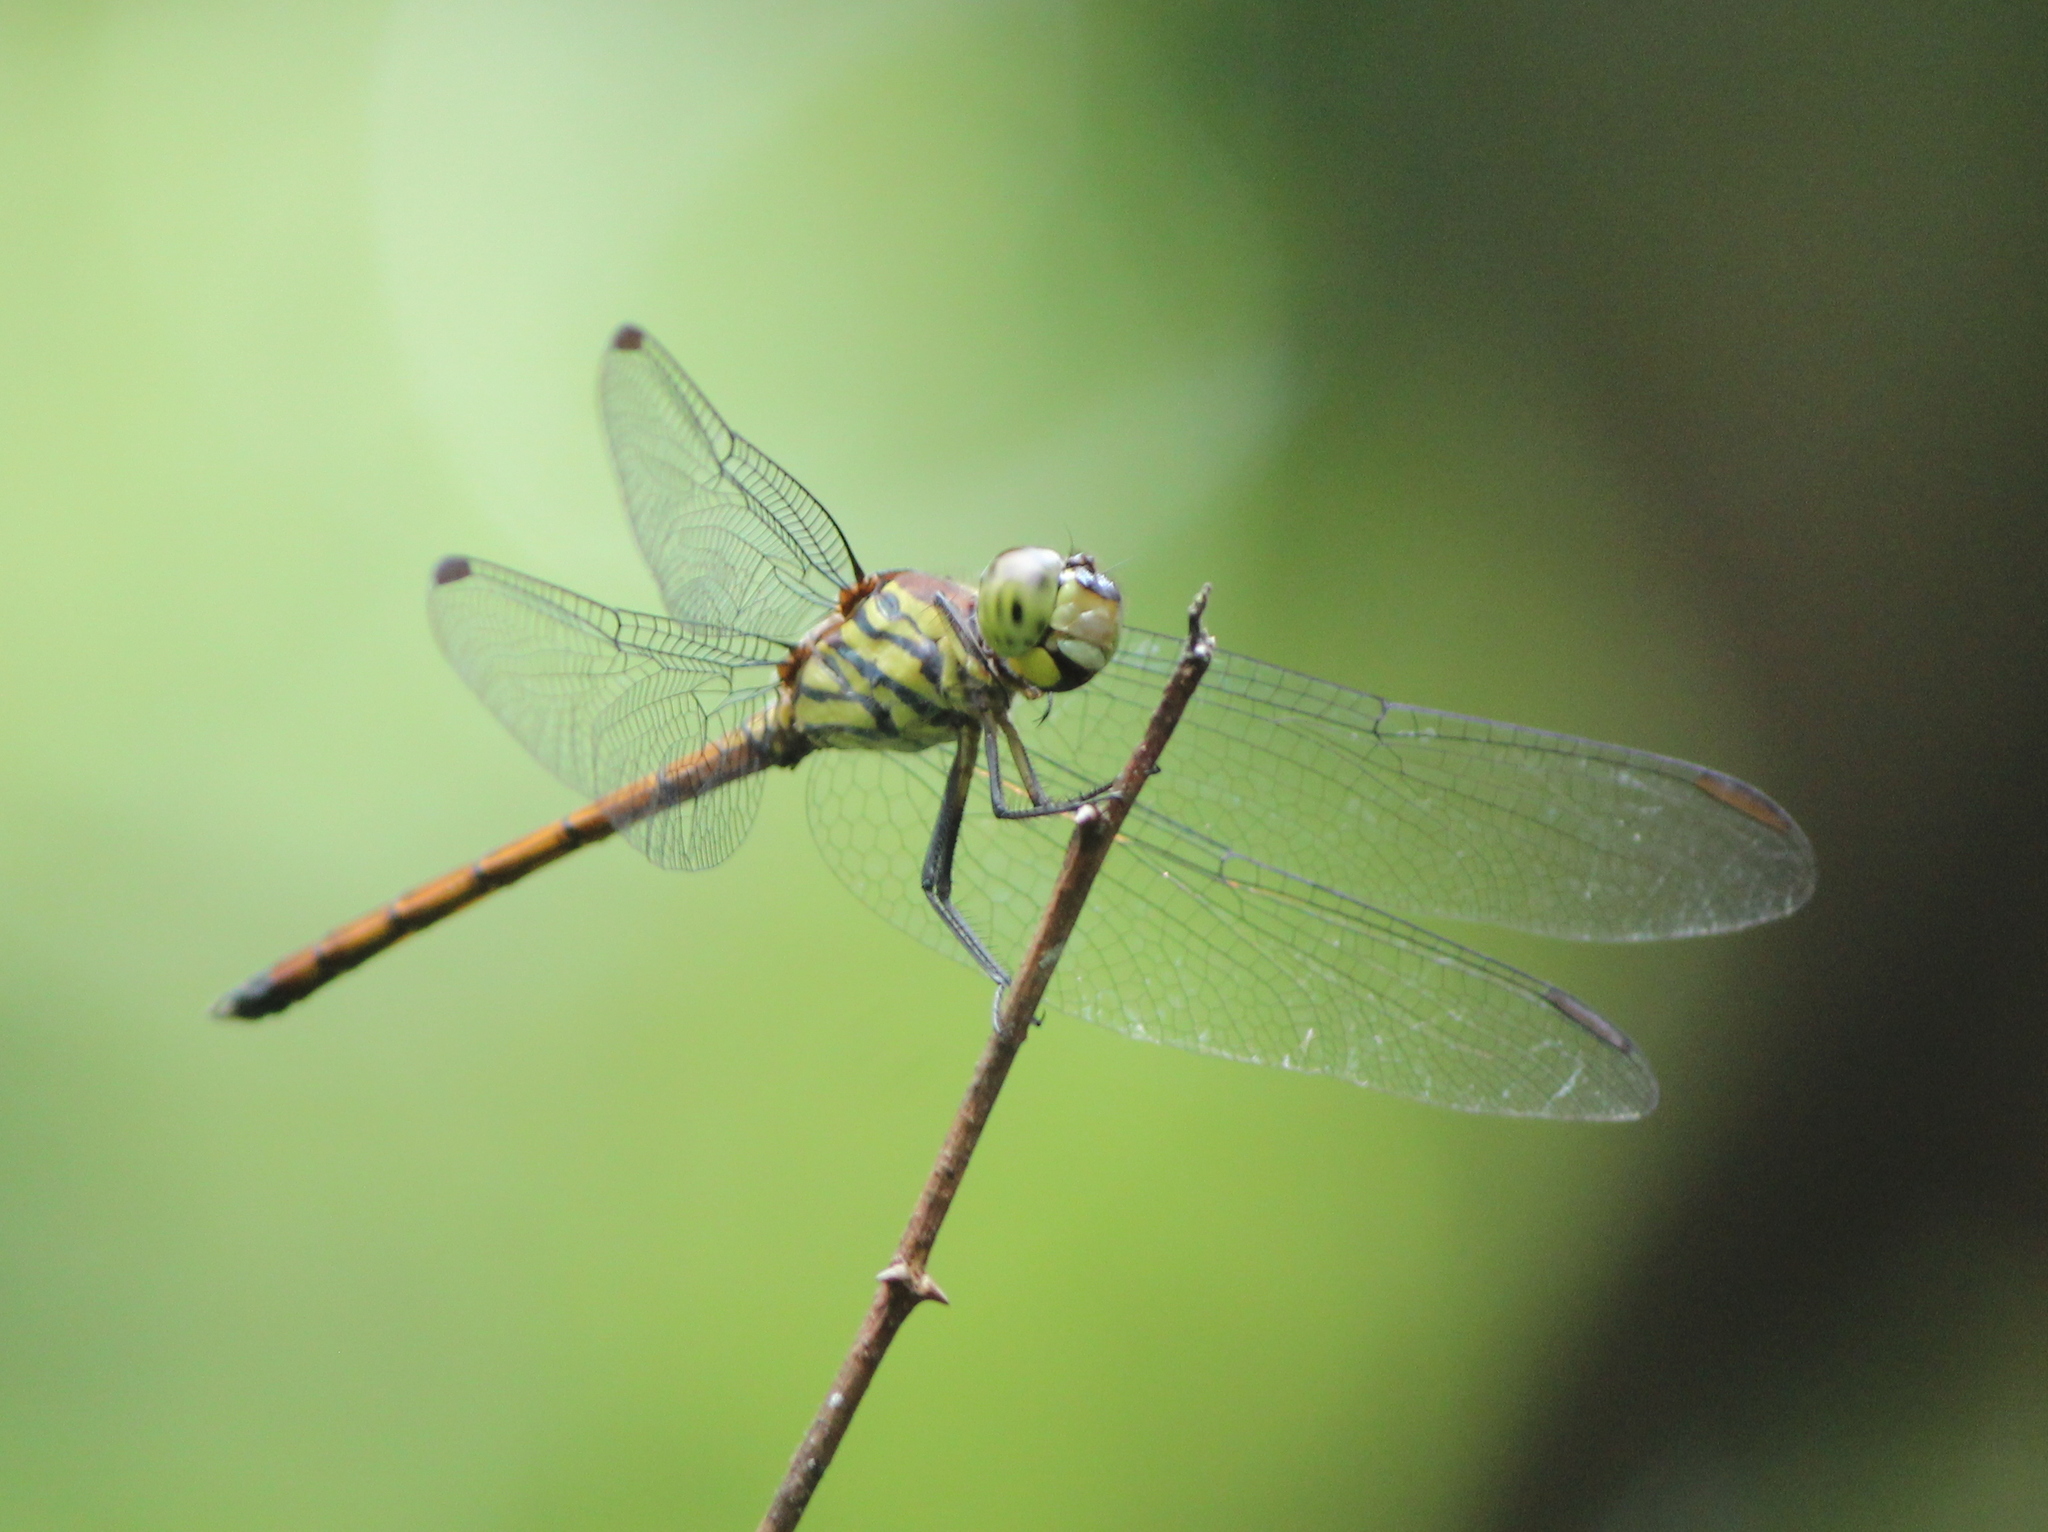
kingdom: Animalia
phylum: Arthropoda
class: Insecta
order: Odonata
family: Libellulidae
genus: Lathrecista
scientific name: Lathrecista asiatica
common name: Scarlet grenadier
